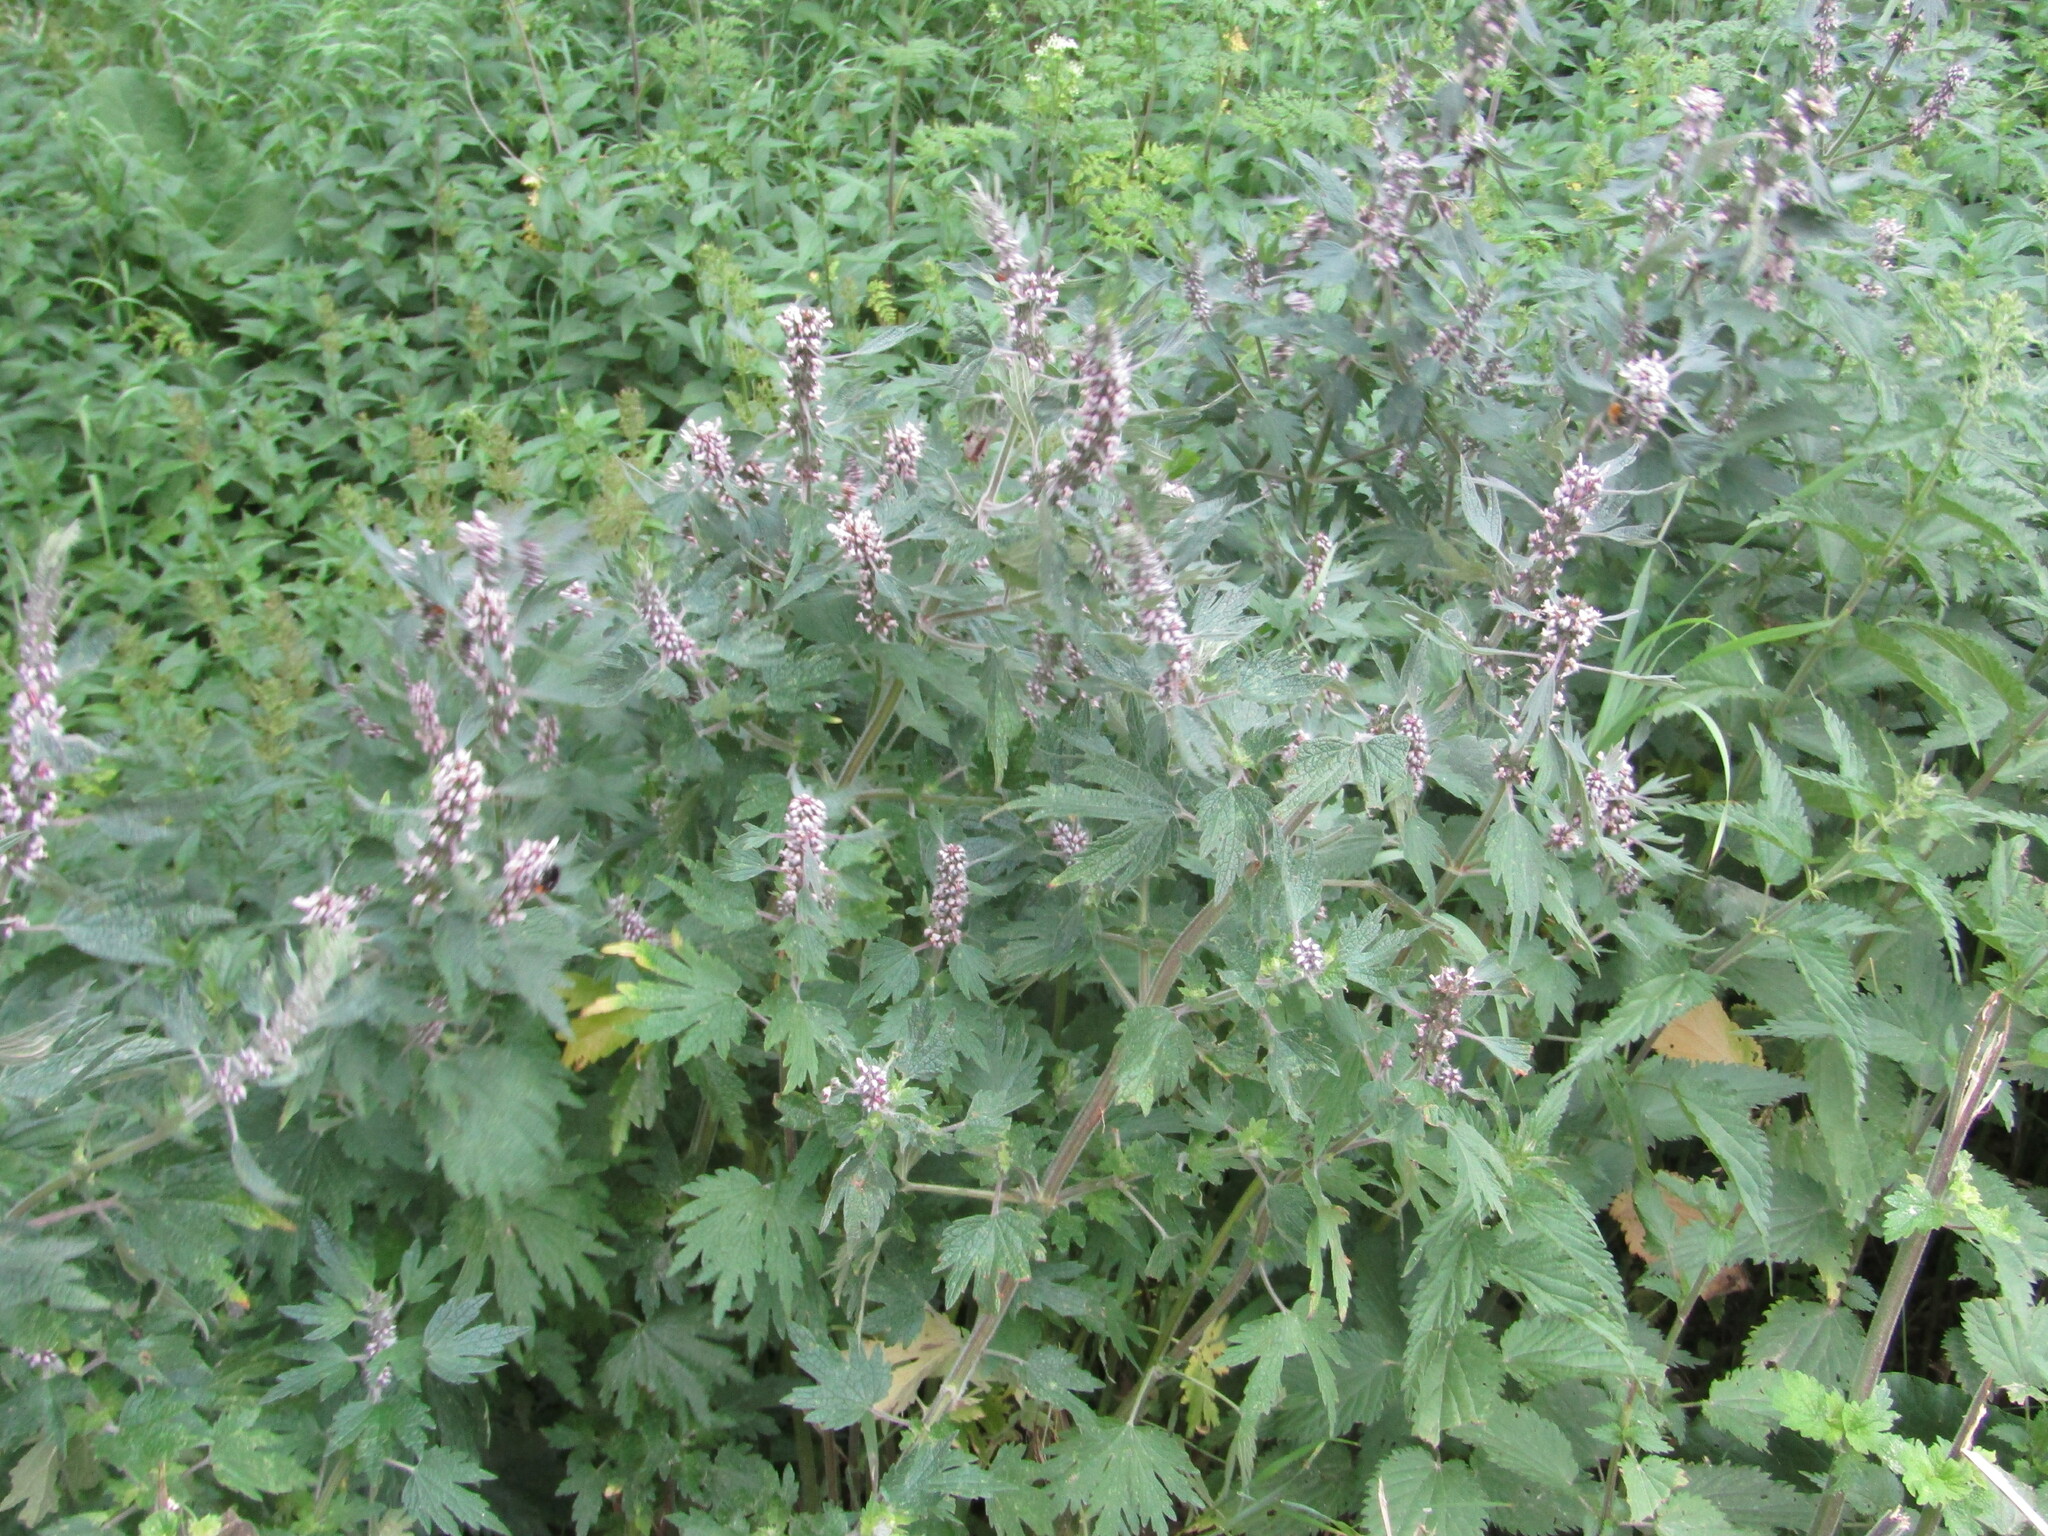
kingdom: Plantae
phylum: Tracheophyta
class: Magnoliopsida
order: Lamiales
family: Lamiaceae
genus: Leonurus
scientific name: Leonurus quinquelobatus
